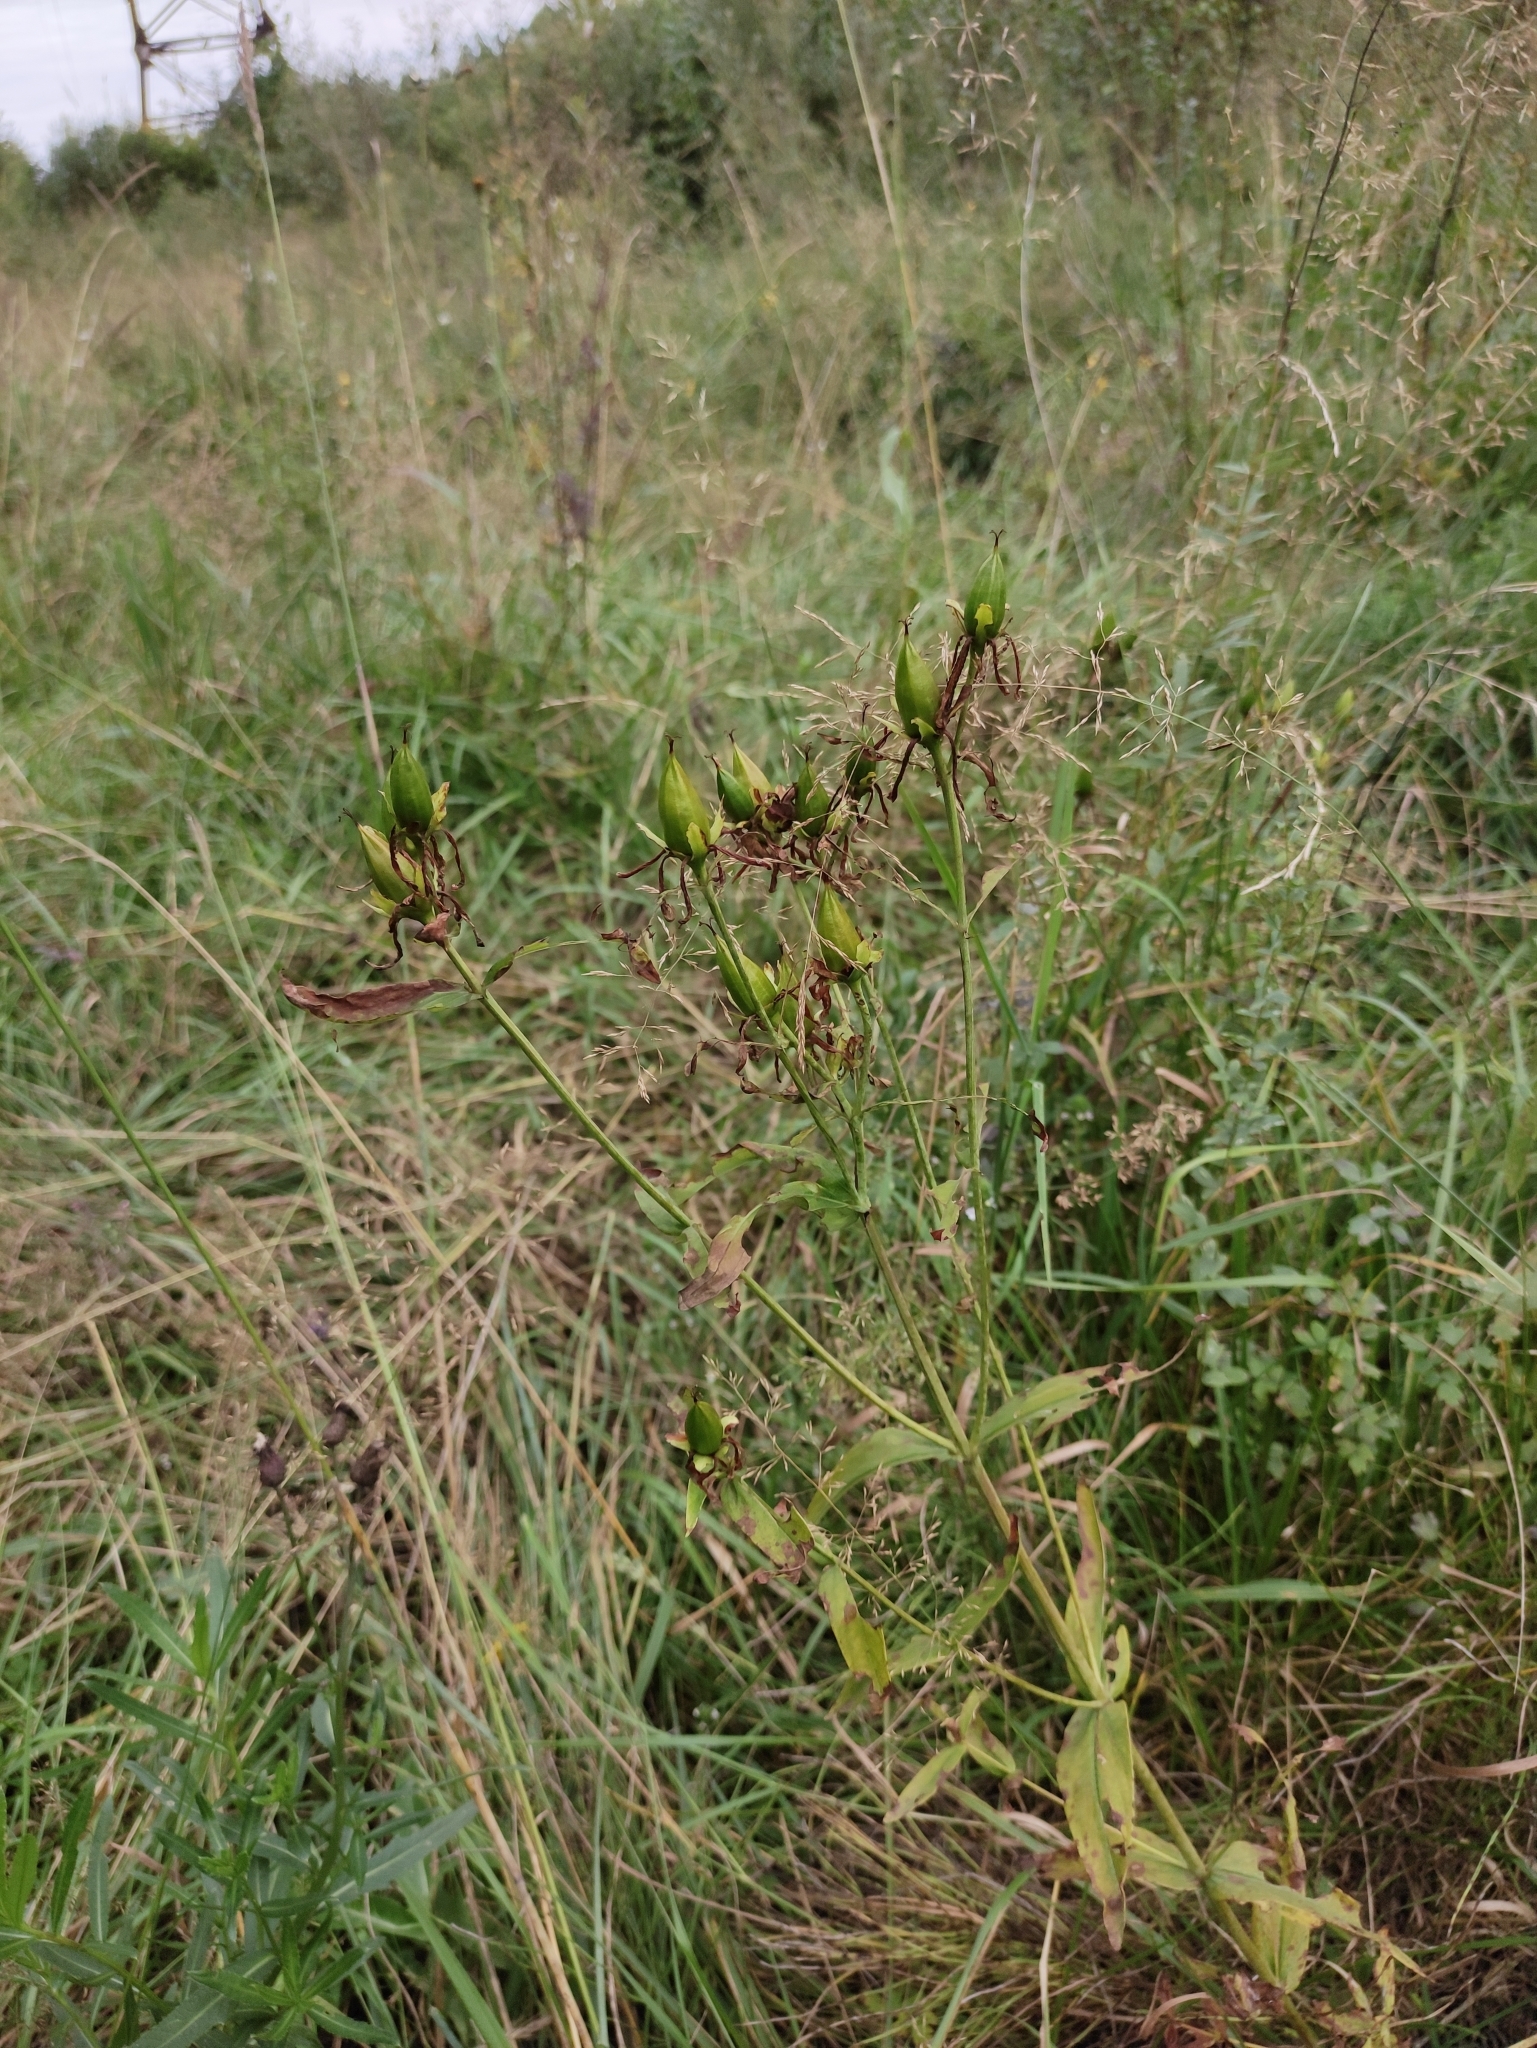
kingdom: Plantae
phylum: Tracheophyta
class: Magnoliopsida
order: Malpighiales
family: Hypericaceae
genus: Hypericum
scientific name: Hypericum ascyron
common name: Giant st. john's-wort
